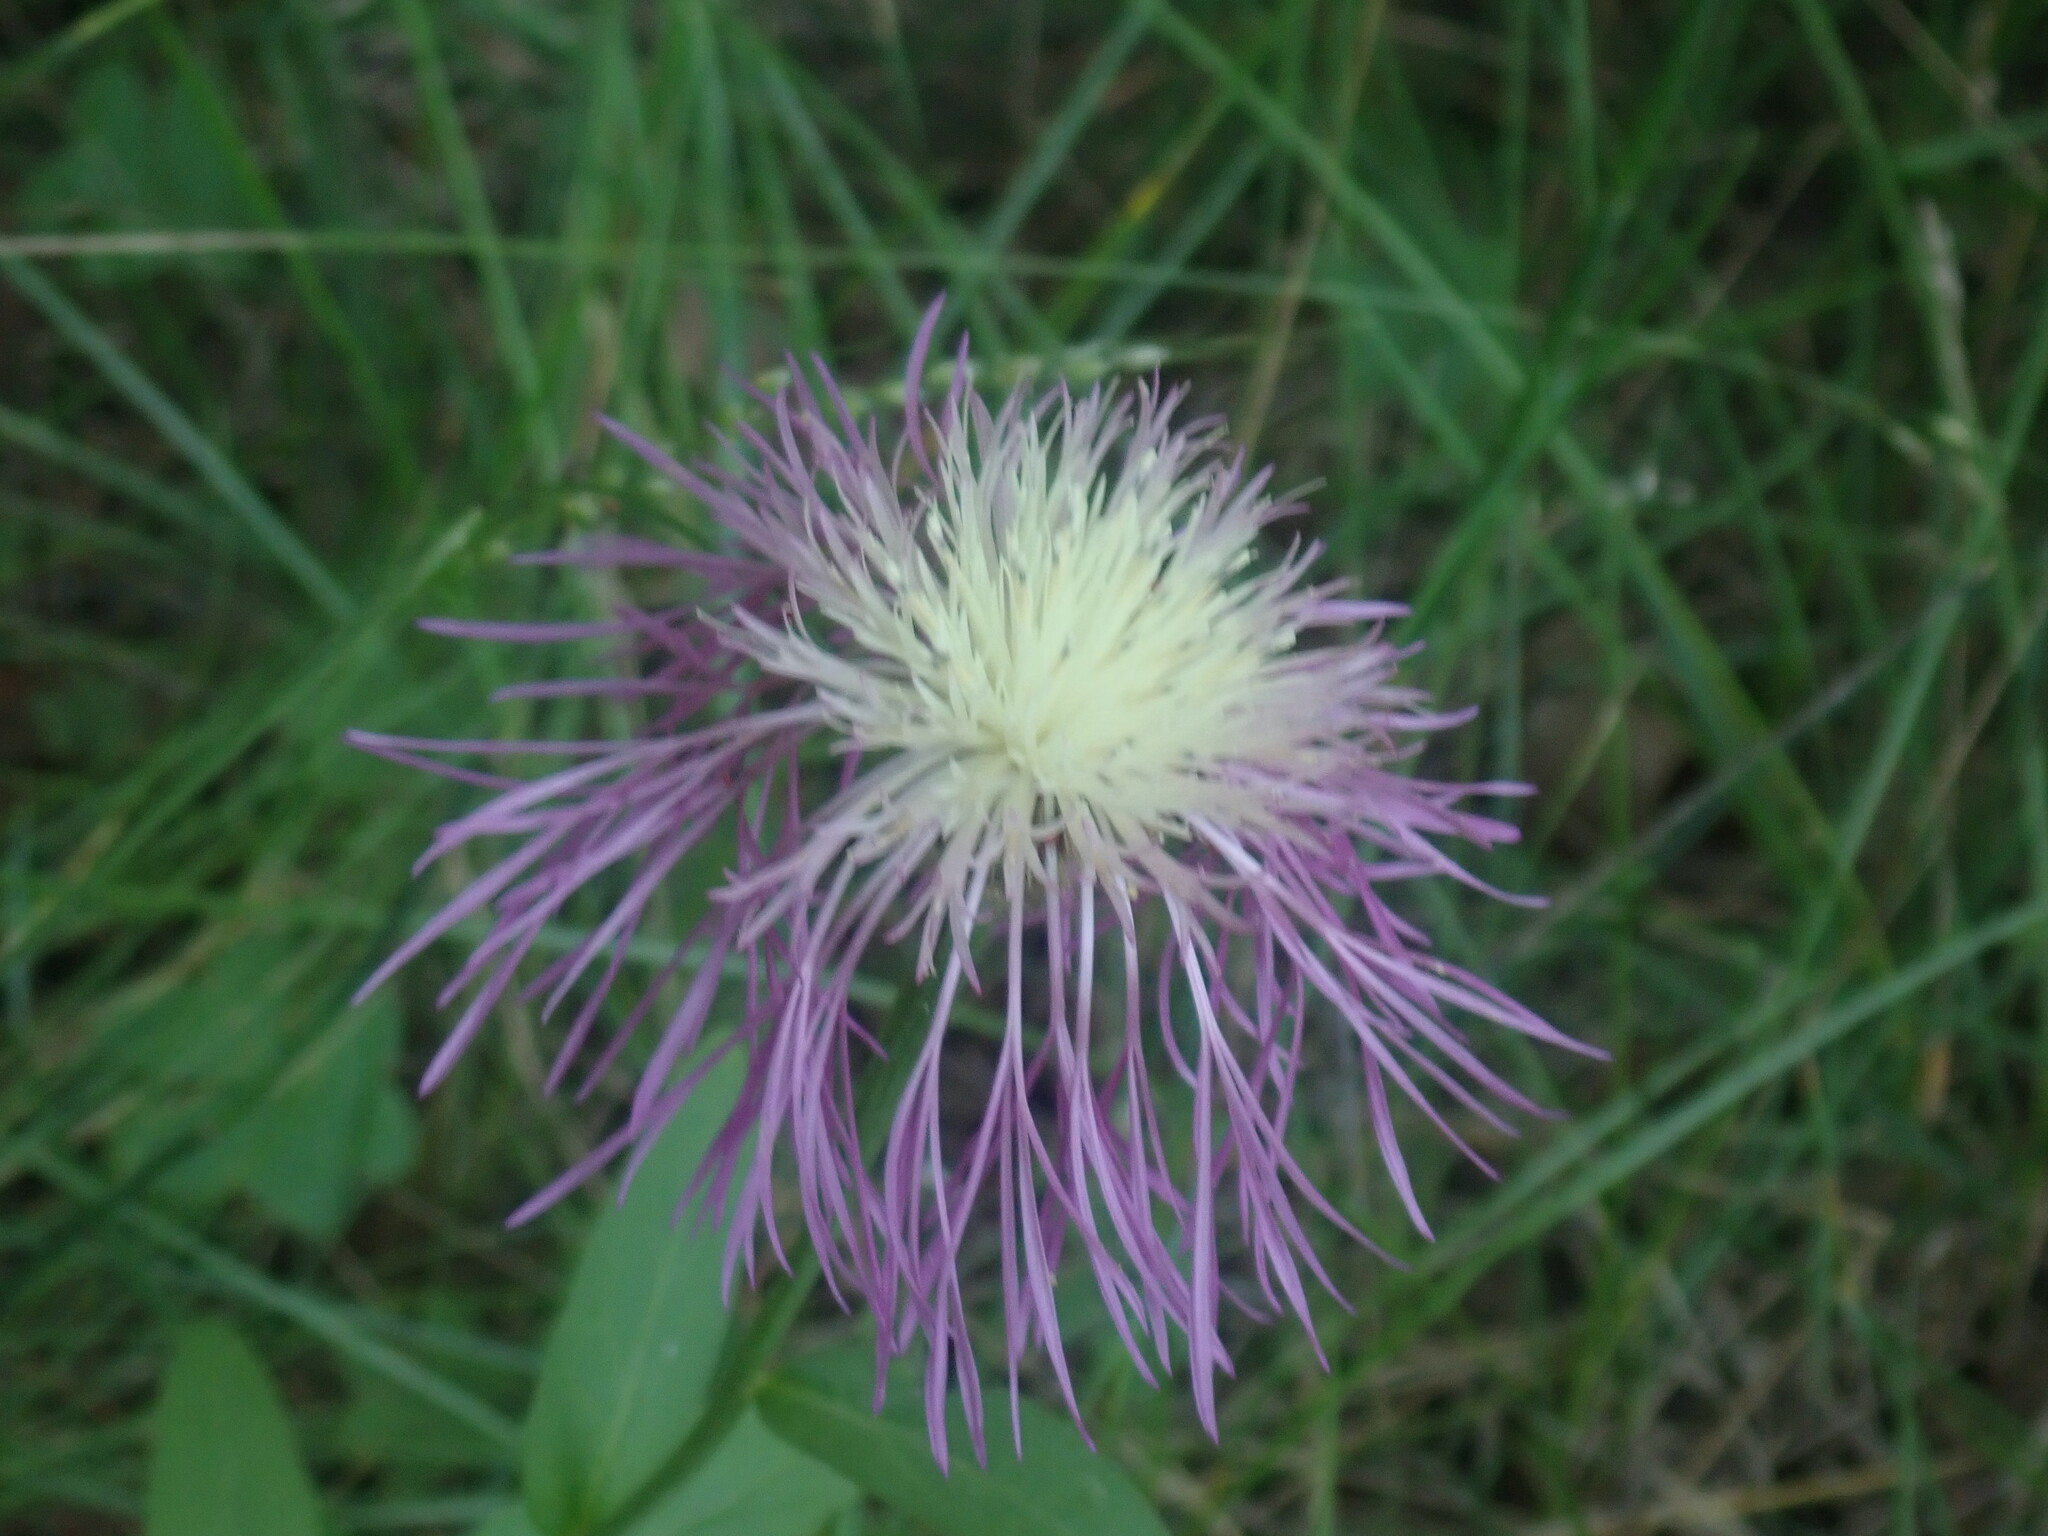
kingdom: Plantae
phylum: Tracheophyta
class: Magnoliopsida
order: Asterales
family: Asteraceae
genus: Plectocephalus
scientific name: Plectocephalus rothrockii
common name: Mexican basketflower
